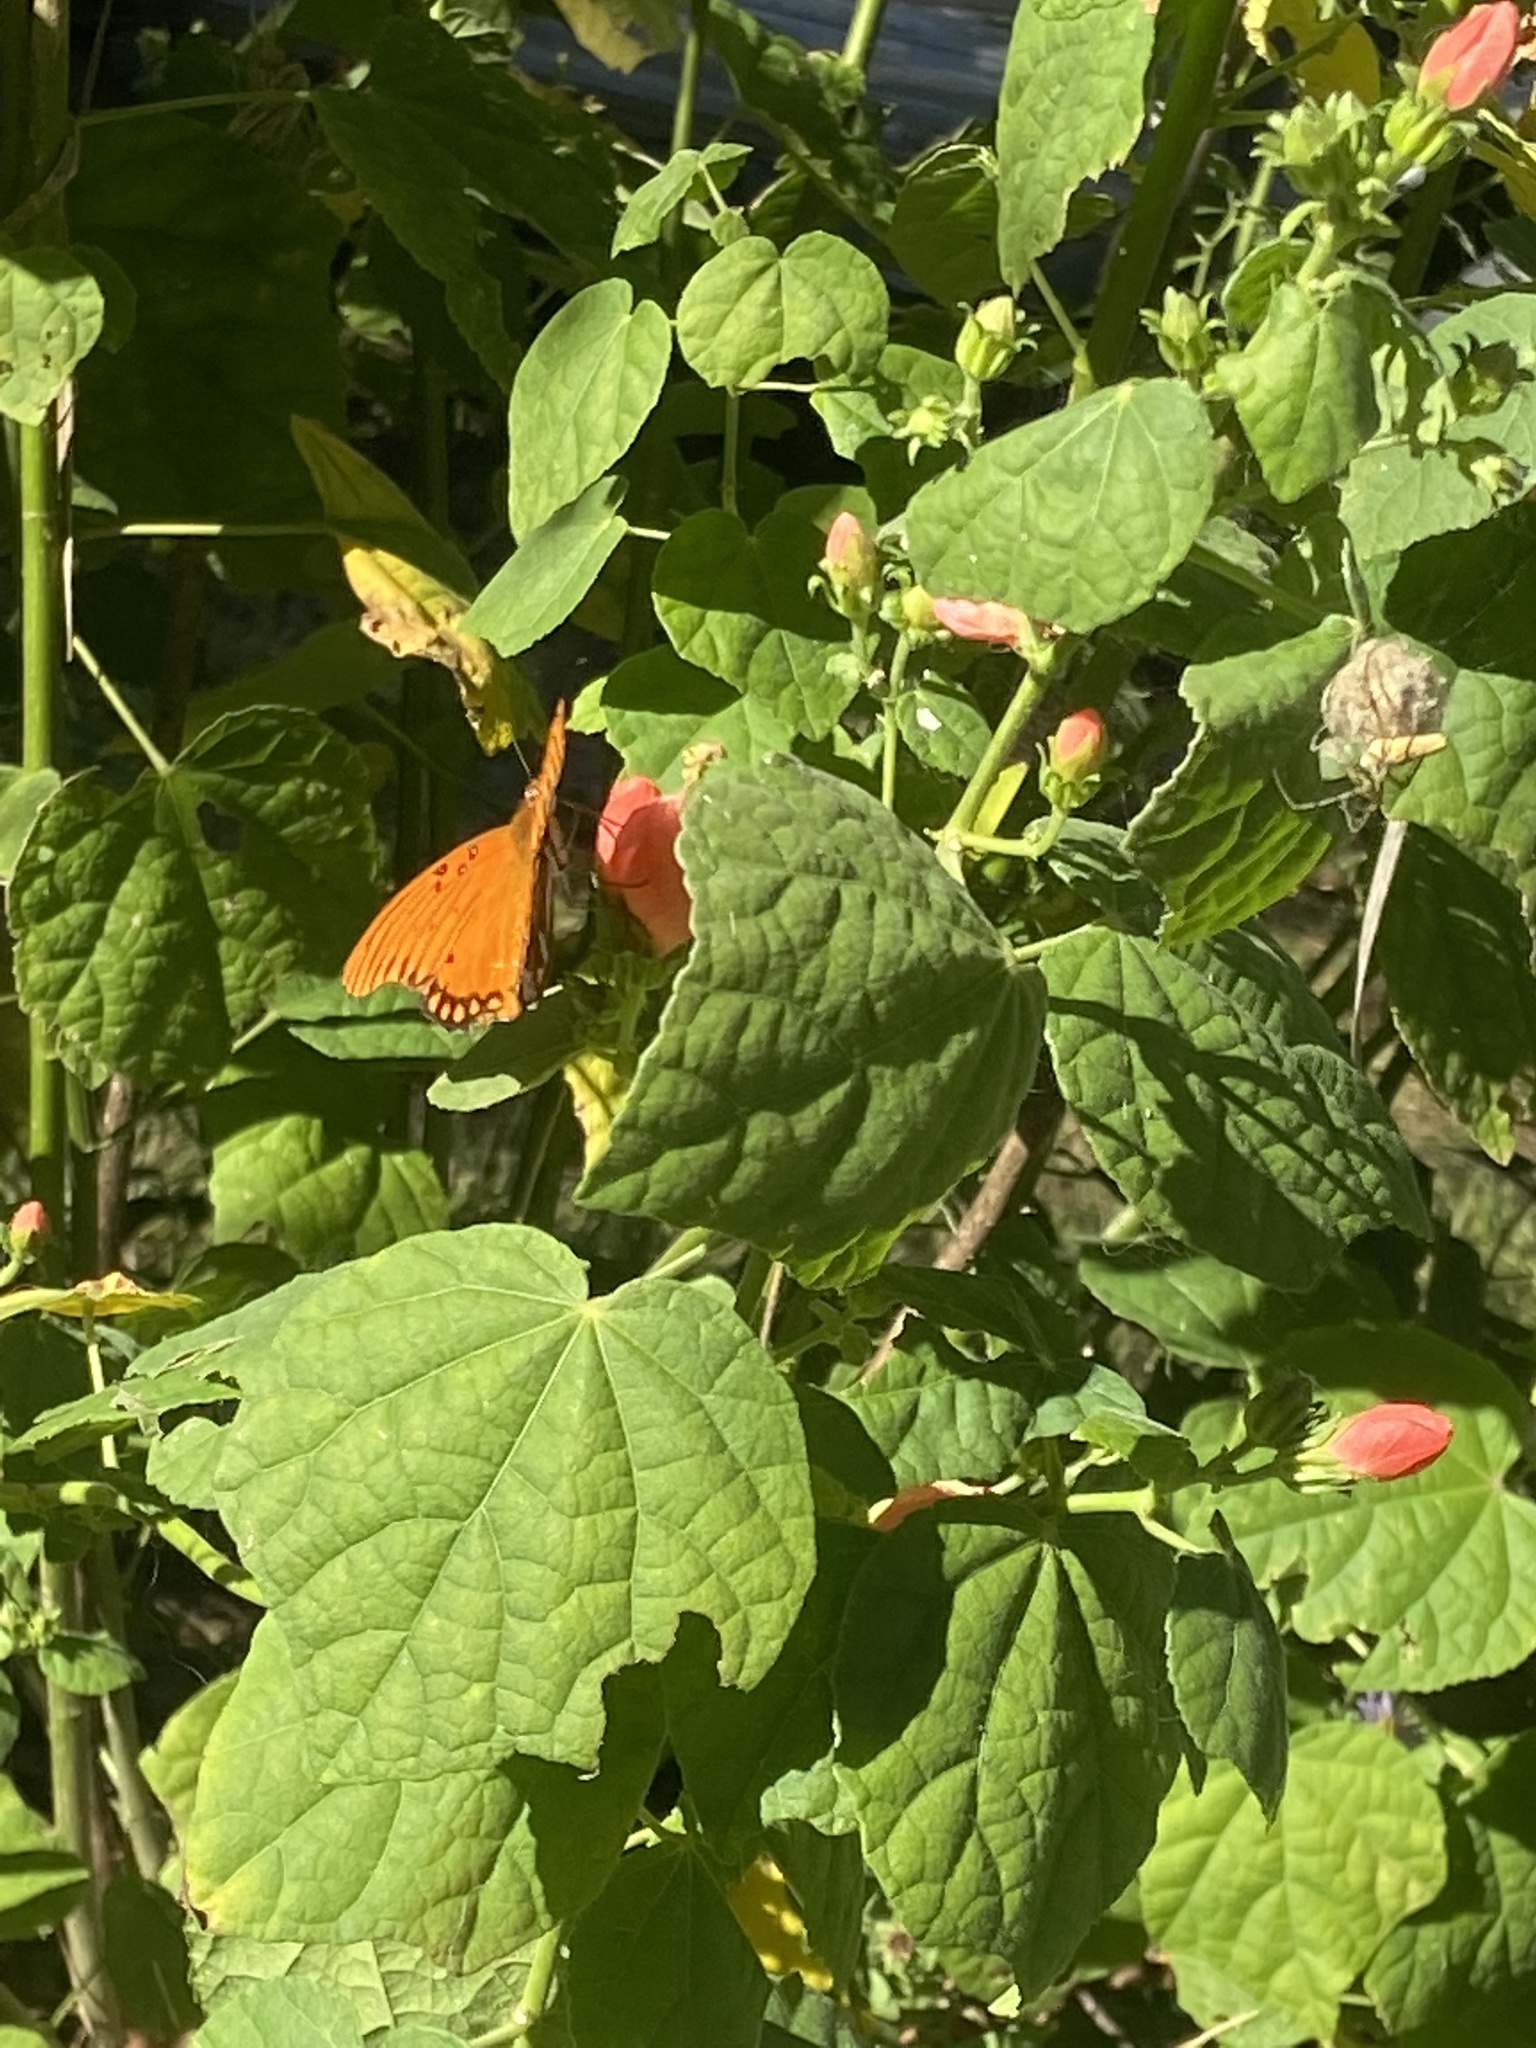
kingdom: Animalia
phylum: Arthropoda
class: Insecta
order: Lepidoptera
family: Nymphalidae
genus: Dione
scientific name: Dione vanillae
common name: Gulf fritillary
